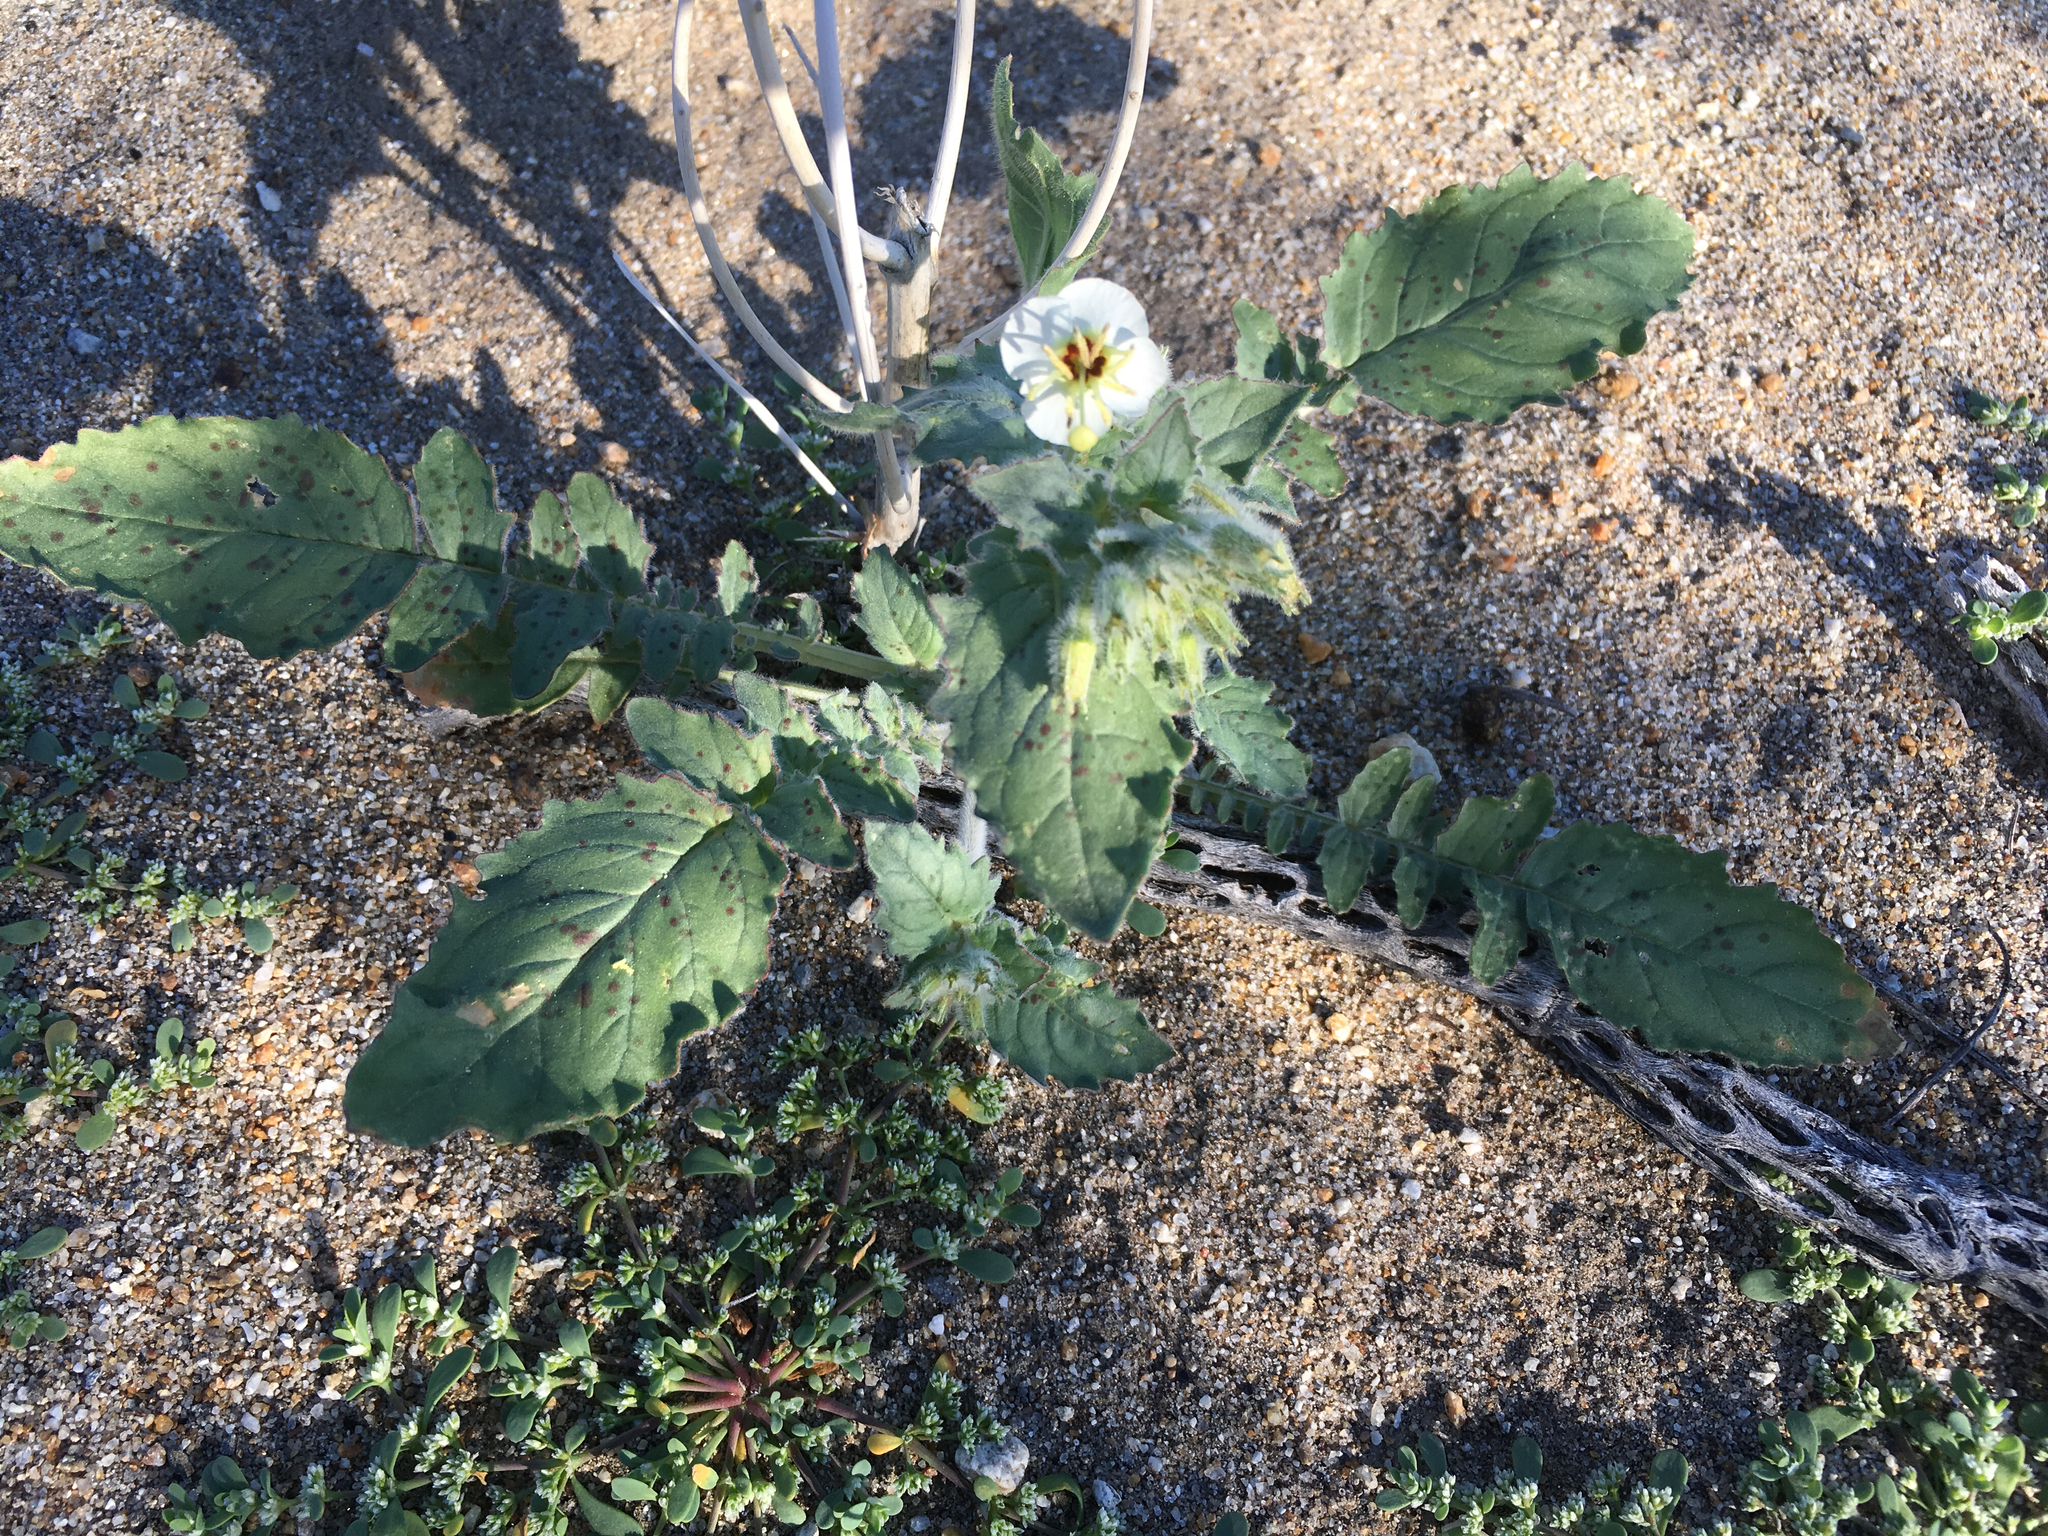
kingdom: Plantae
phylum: Tracheophyta
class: Magnoliopsida
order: Myrtales
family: Onagraceae
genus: Chylismia
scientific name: Chylismia claviformis
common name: Browneyes
